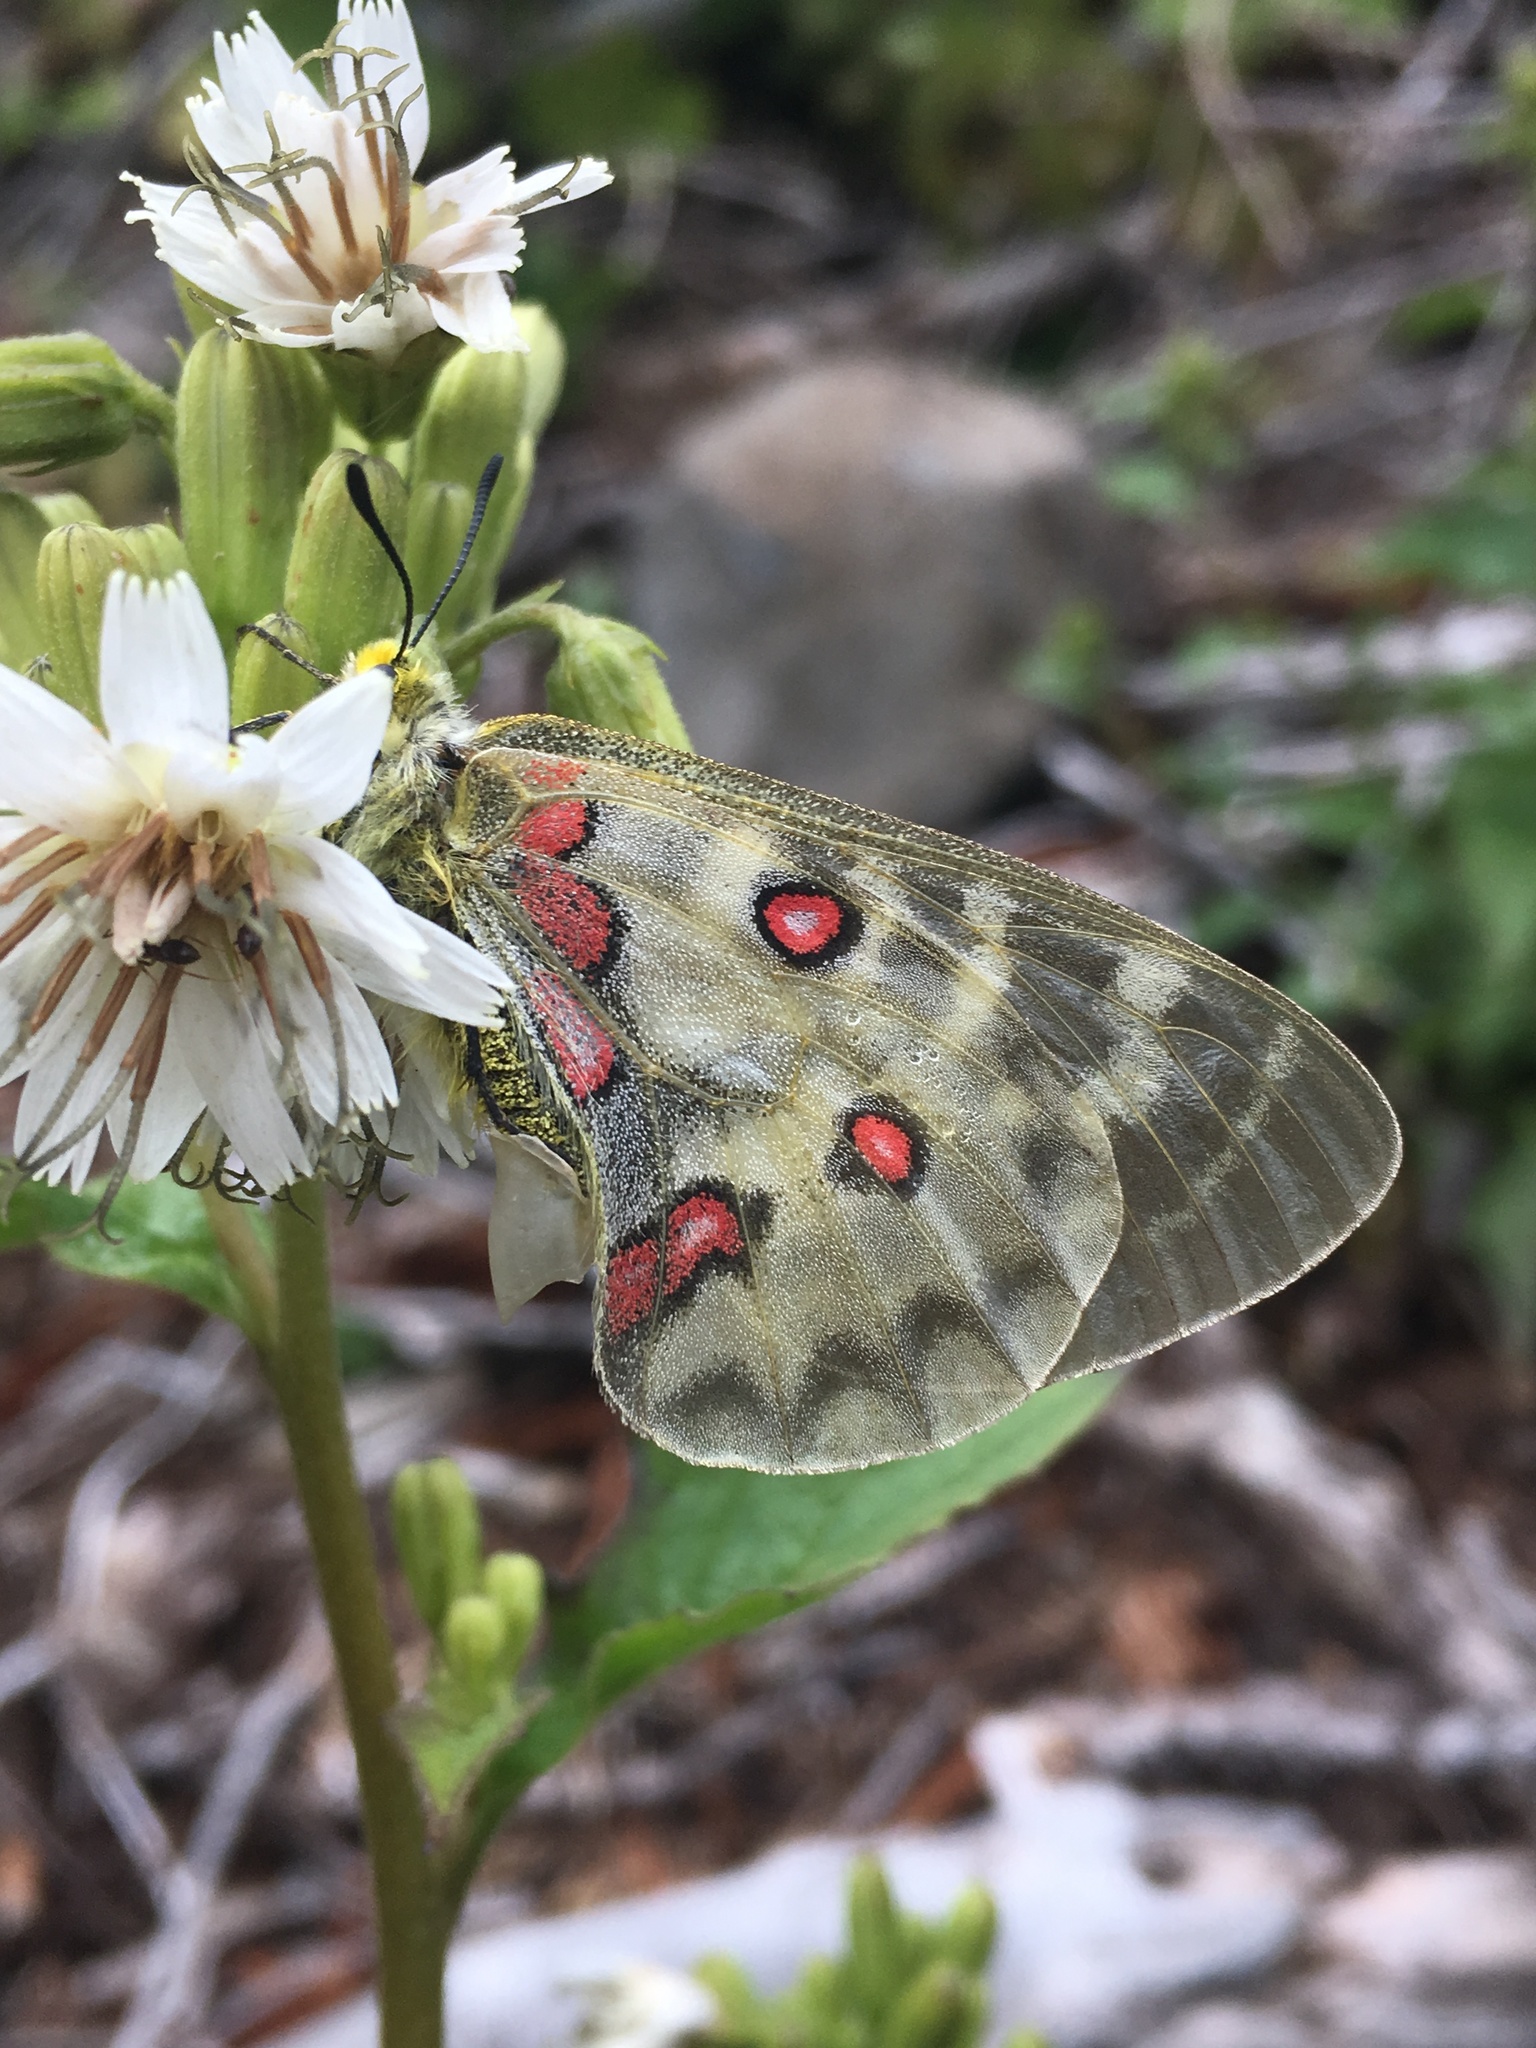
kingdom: Animalia
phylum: Arthropoda
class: Insecta
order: Lepidoptera
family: Papilionidae
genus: Parnassius
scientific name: Parnassius clodius
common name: American apollo
